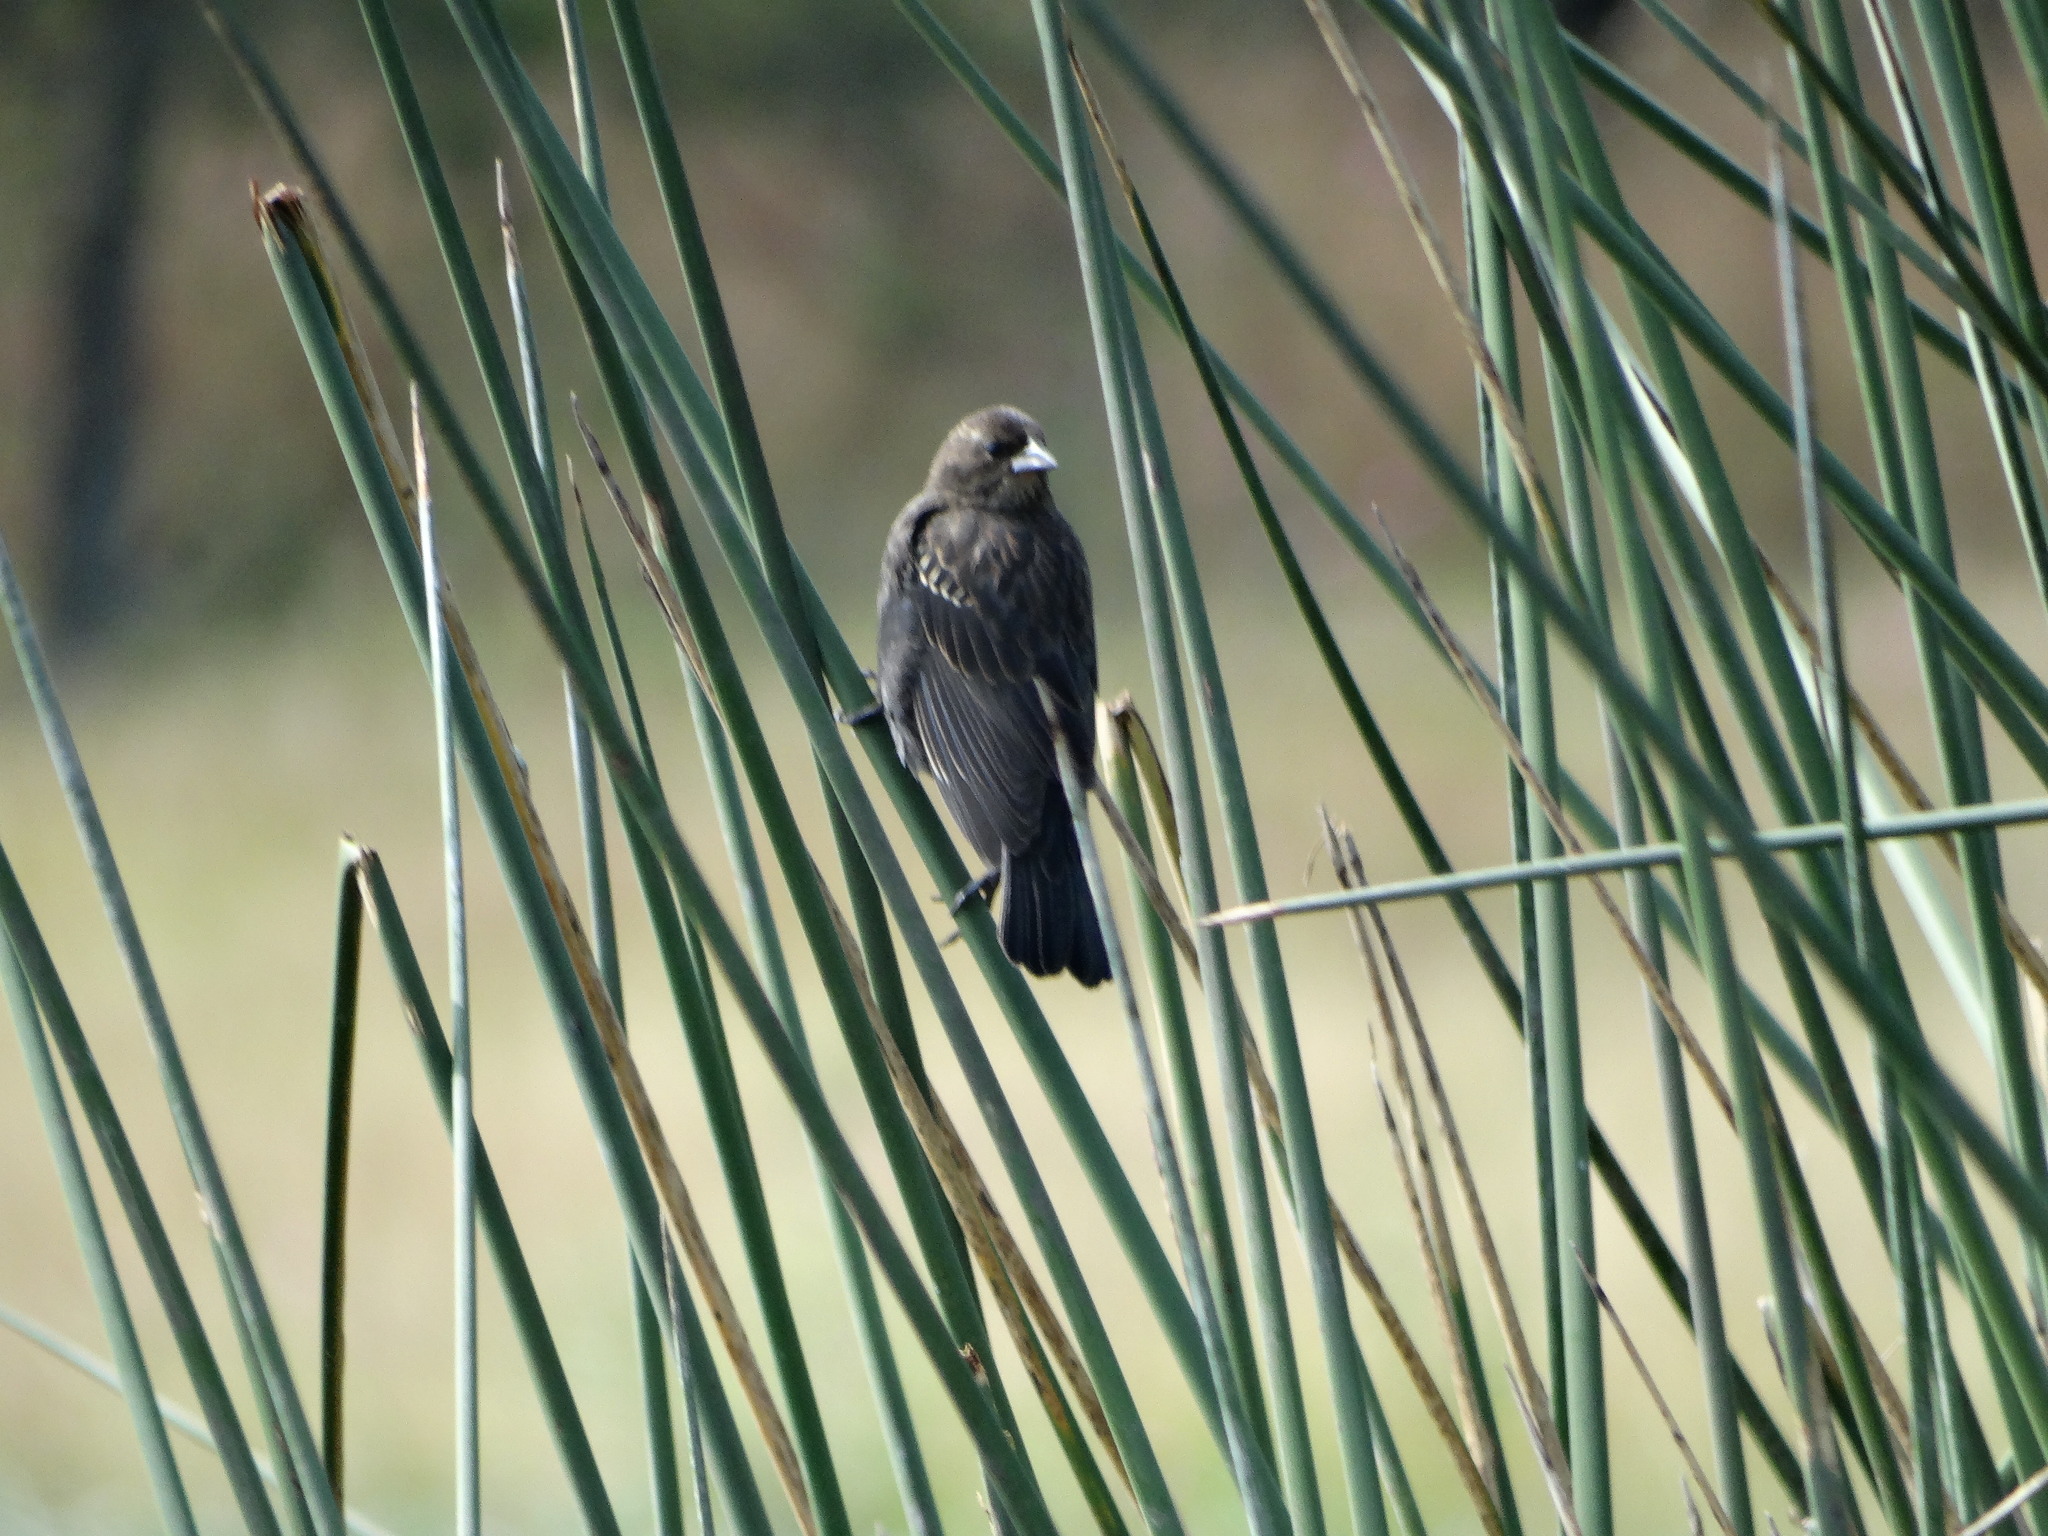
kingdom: Animalia
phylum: Chordata
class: Aves
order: Passeriformes
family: Icteridae
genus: Agelaius
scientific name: Agelaius phoeniceus
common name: Red-winged blackbird
